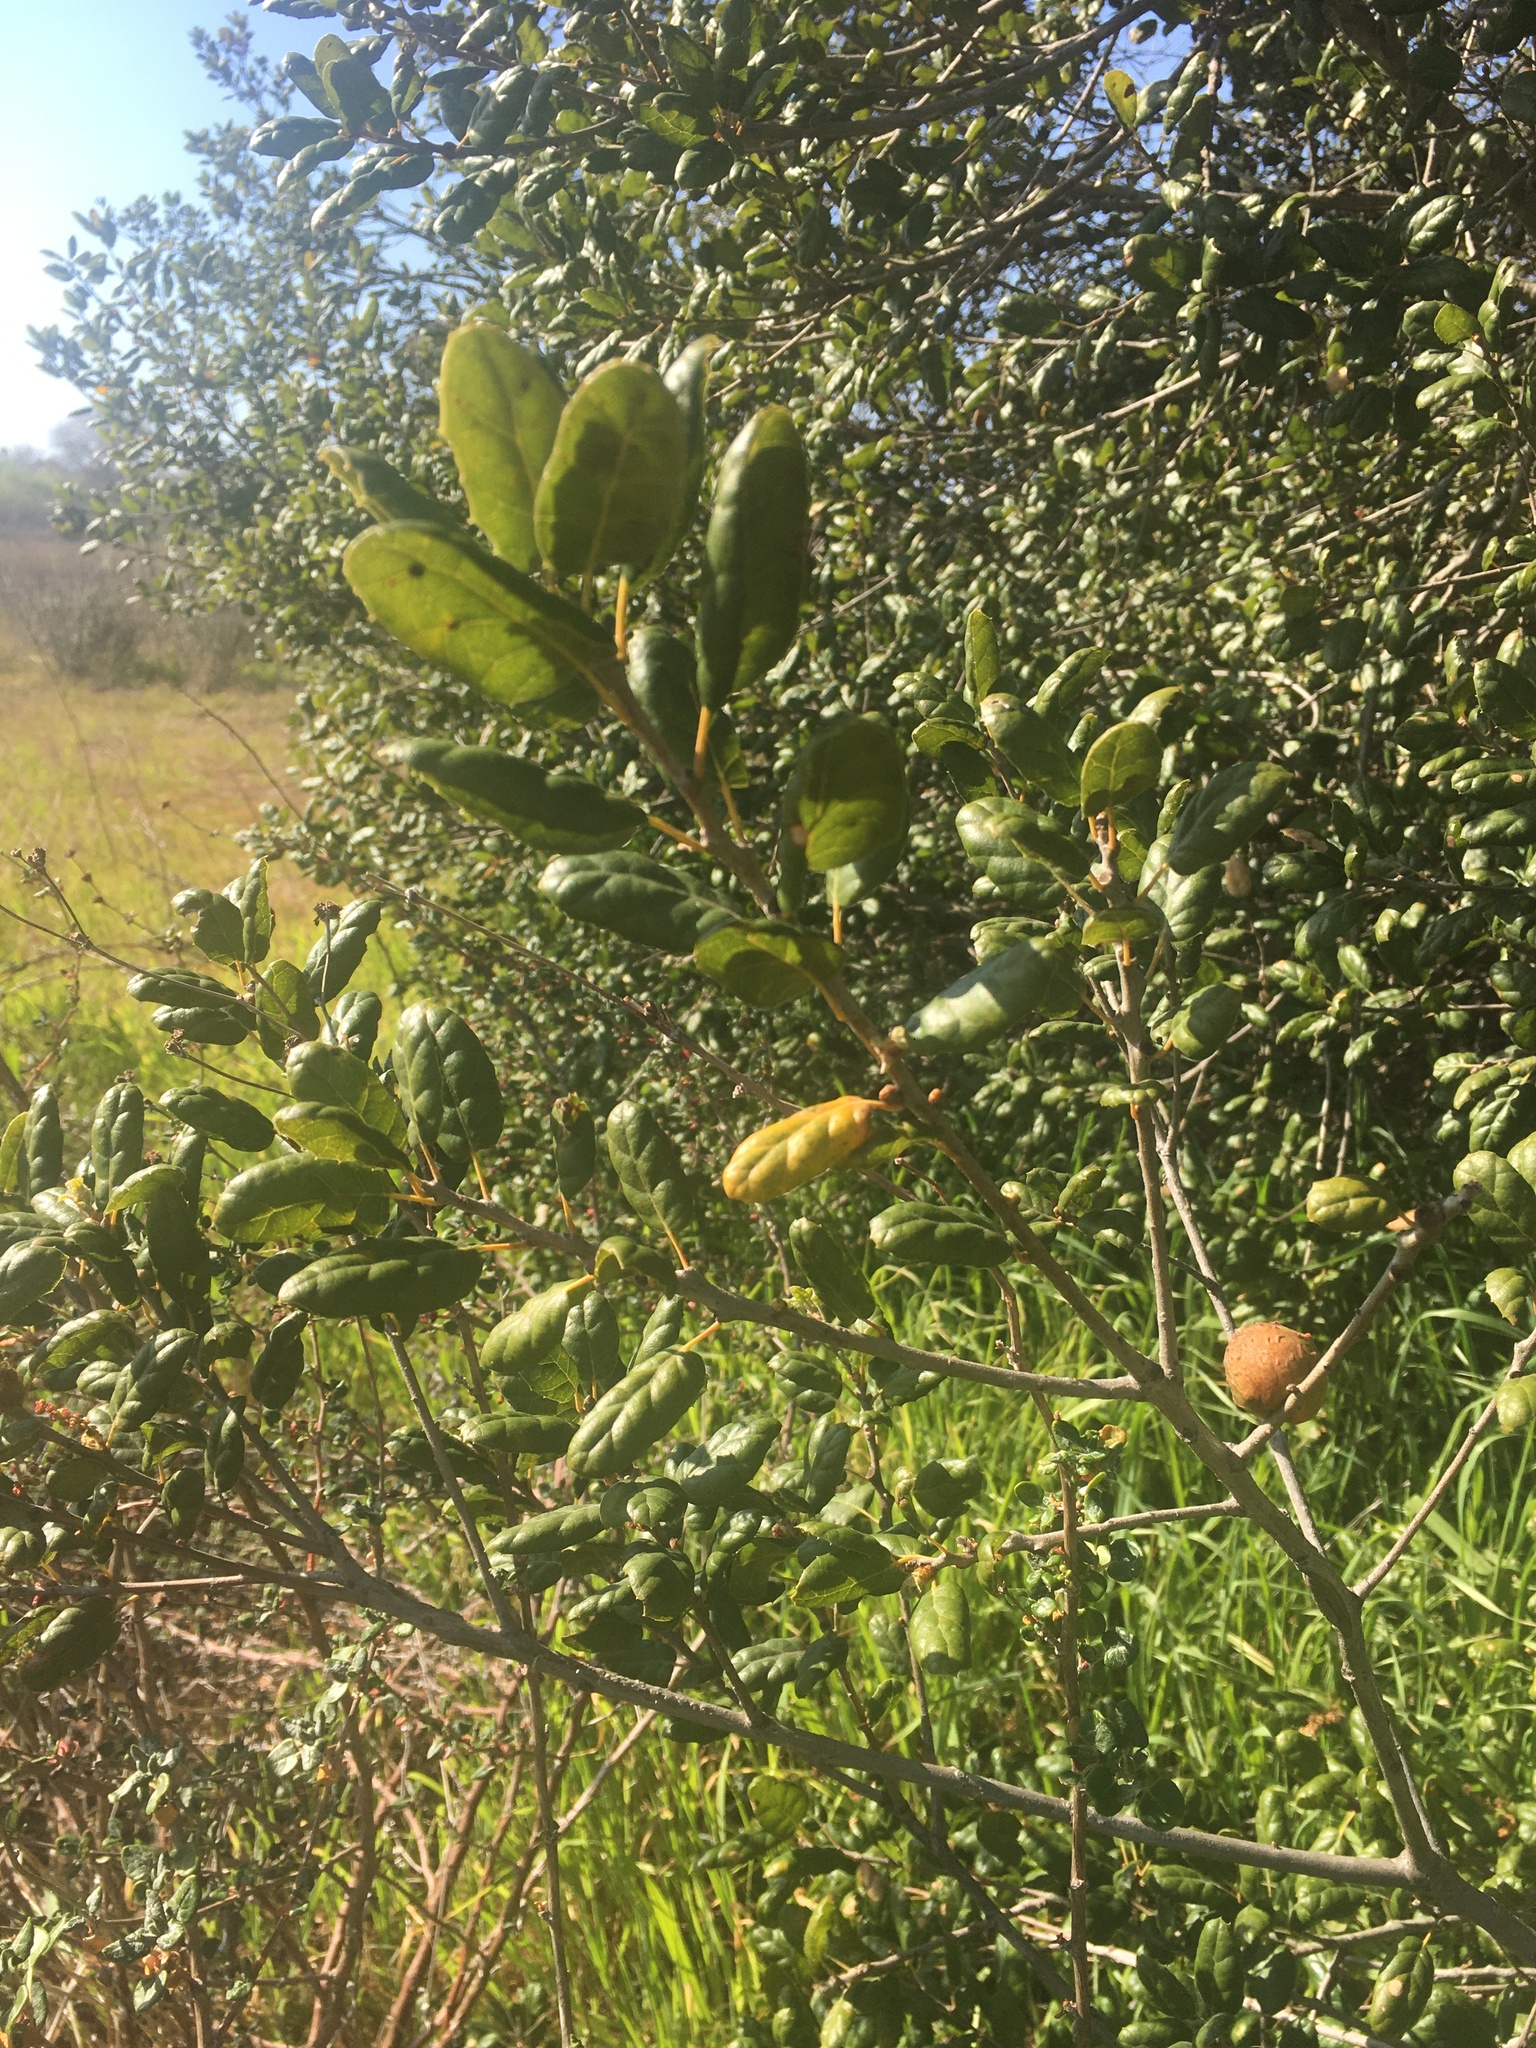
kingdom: Plantae
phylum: Tracheophyta
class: Magnoliopsida
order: Fagales
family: Fagaceae
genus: Quercus
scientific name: Quercus agrifolia
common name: California live oak
